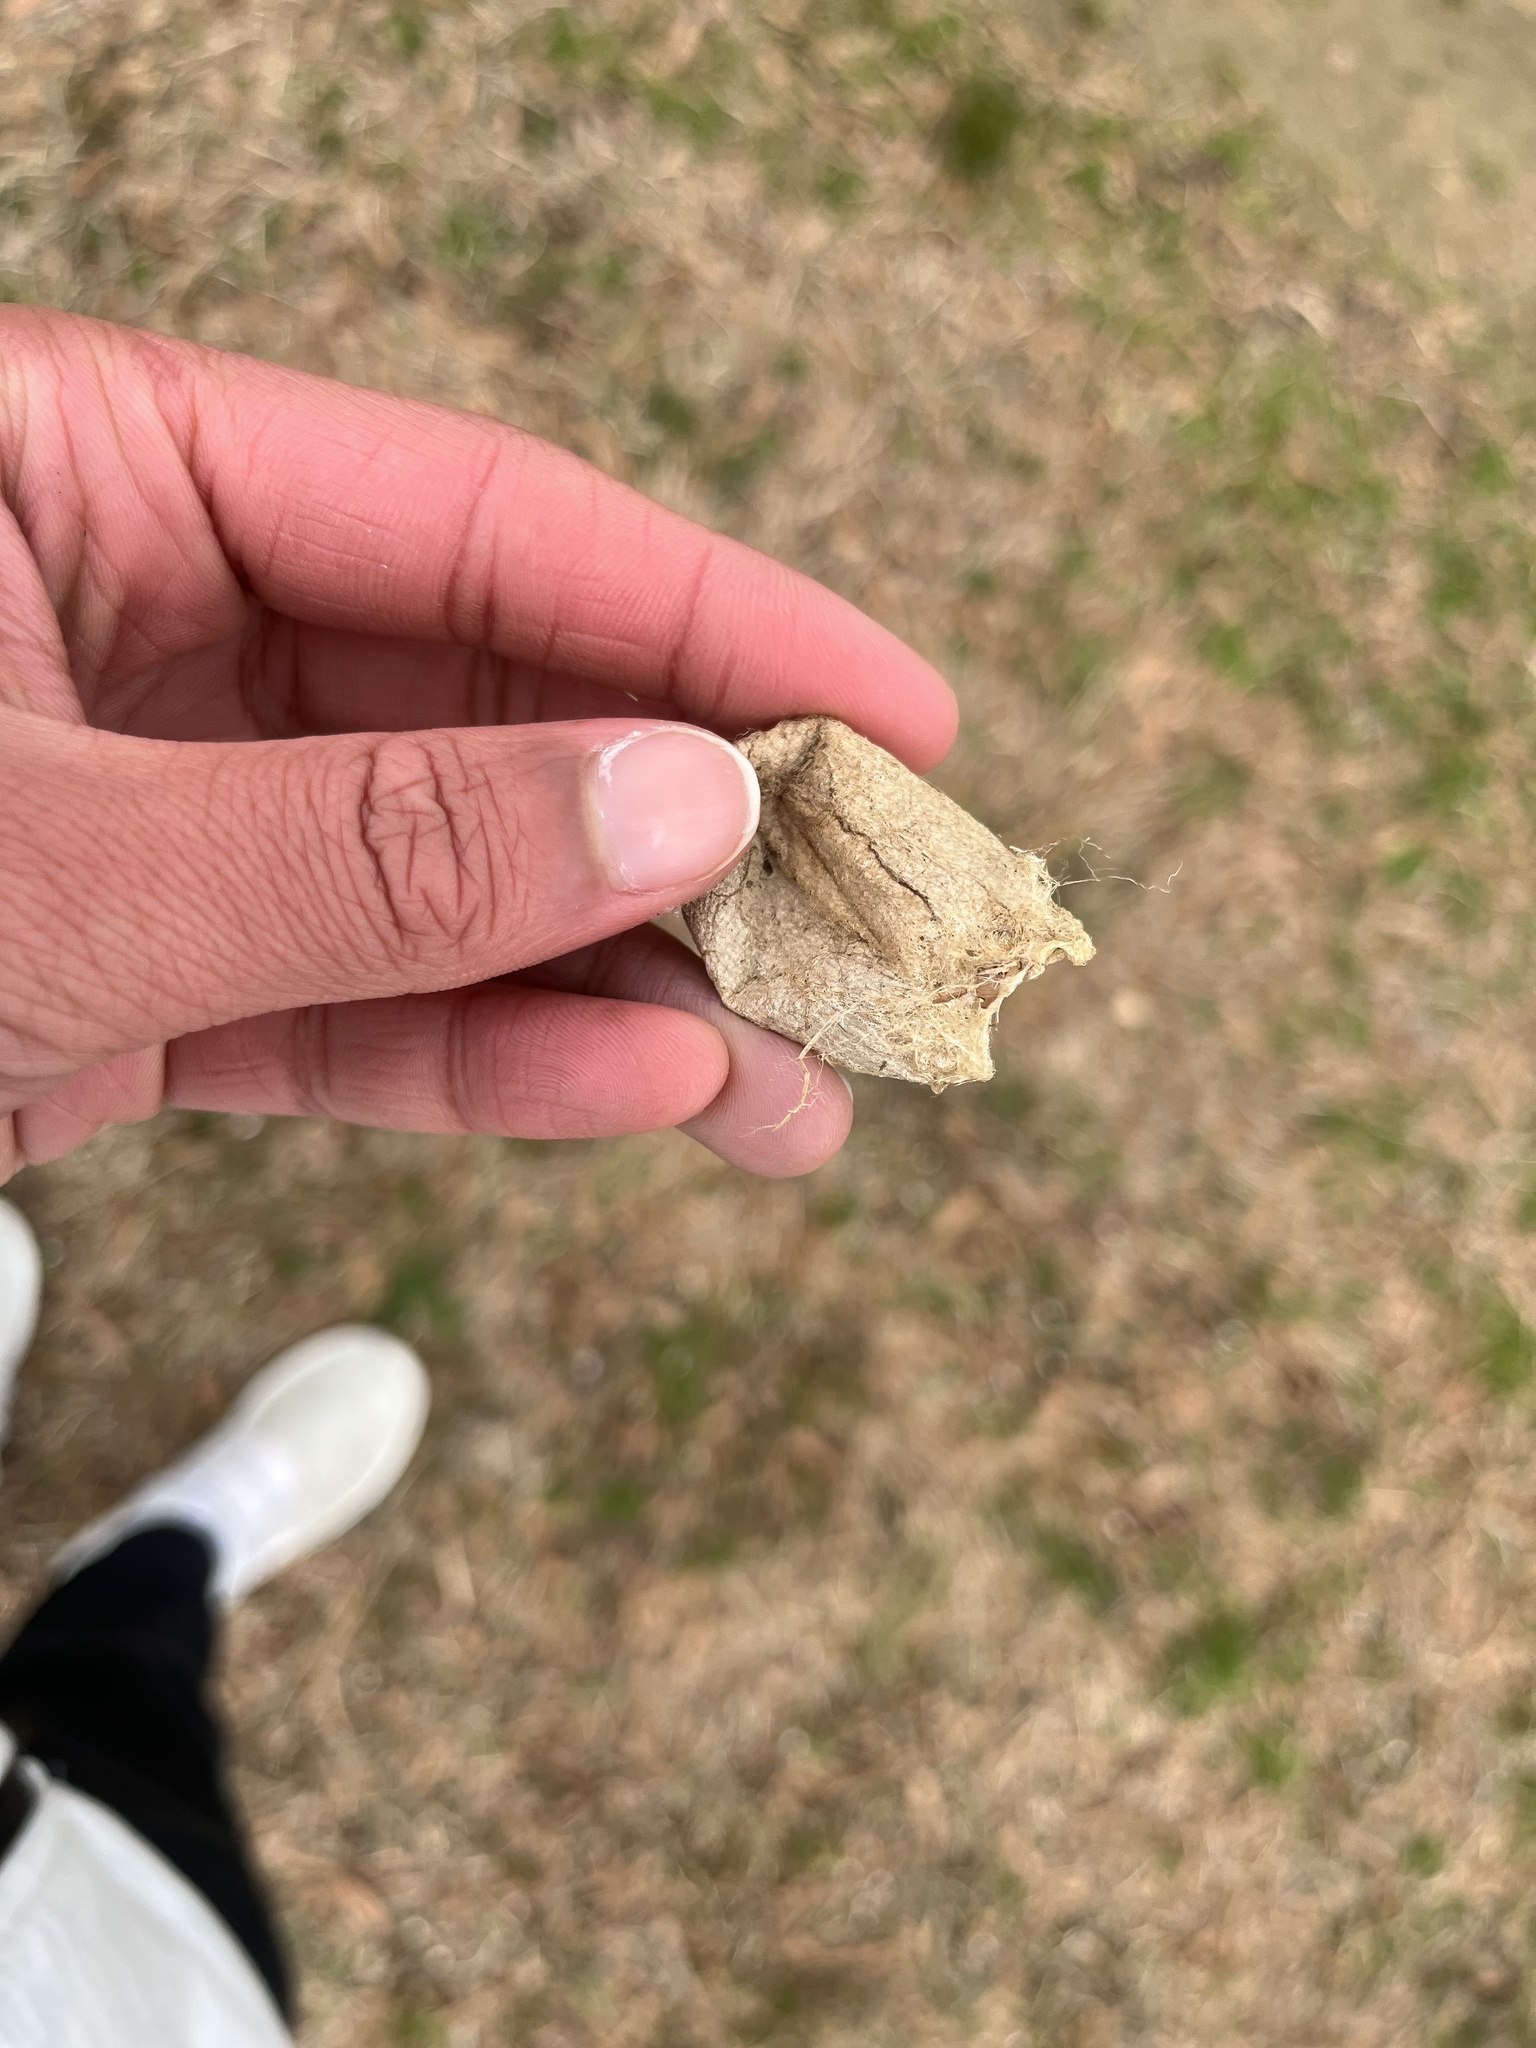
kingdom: Animalia
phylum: Arthropoda
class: Insecta
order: Lepidoptera
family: Saturniidae
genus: Antheraea
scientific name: Antheraea polyphemus
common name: Polyphemus moth
